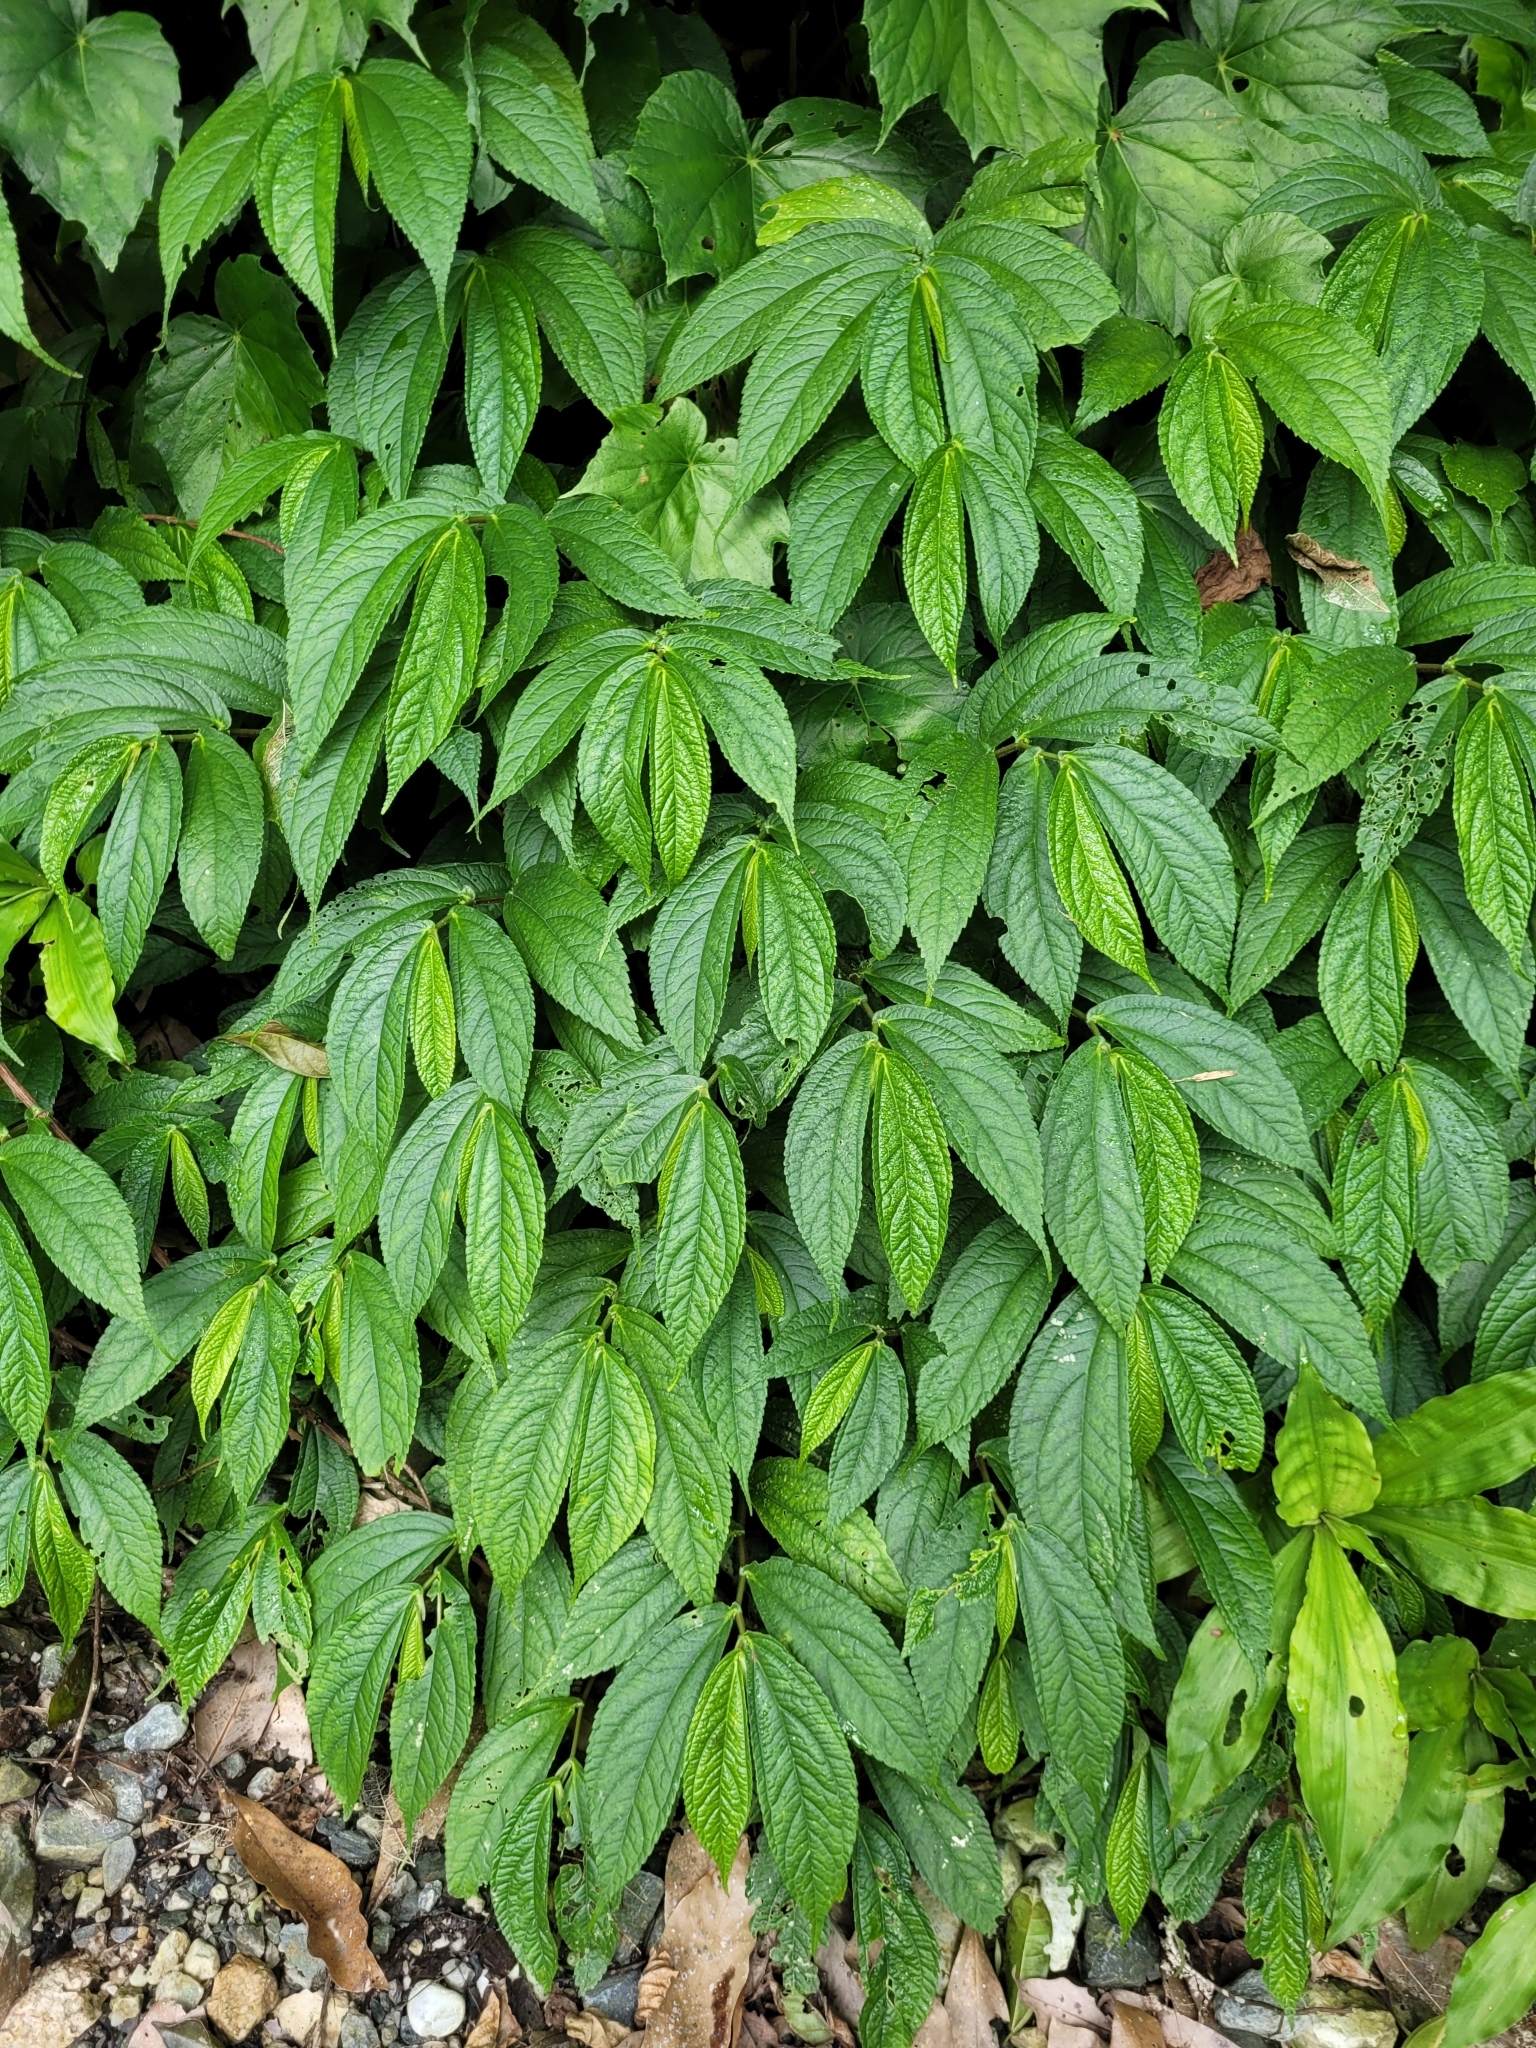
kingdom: Plantae
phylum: Tracheophyta
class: Magnoliopsida
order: Rosales
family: Urticaceae
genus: Elatostema
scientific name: Elatostema platyphyllum
